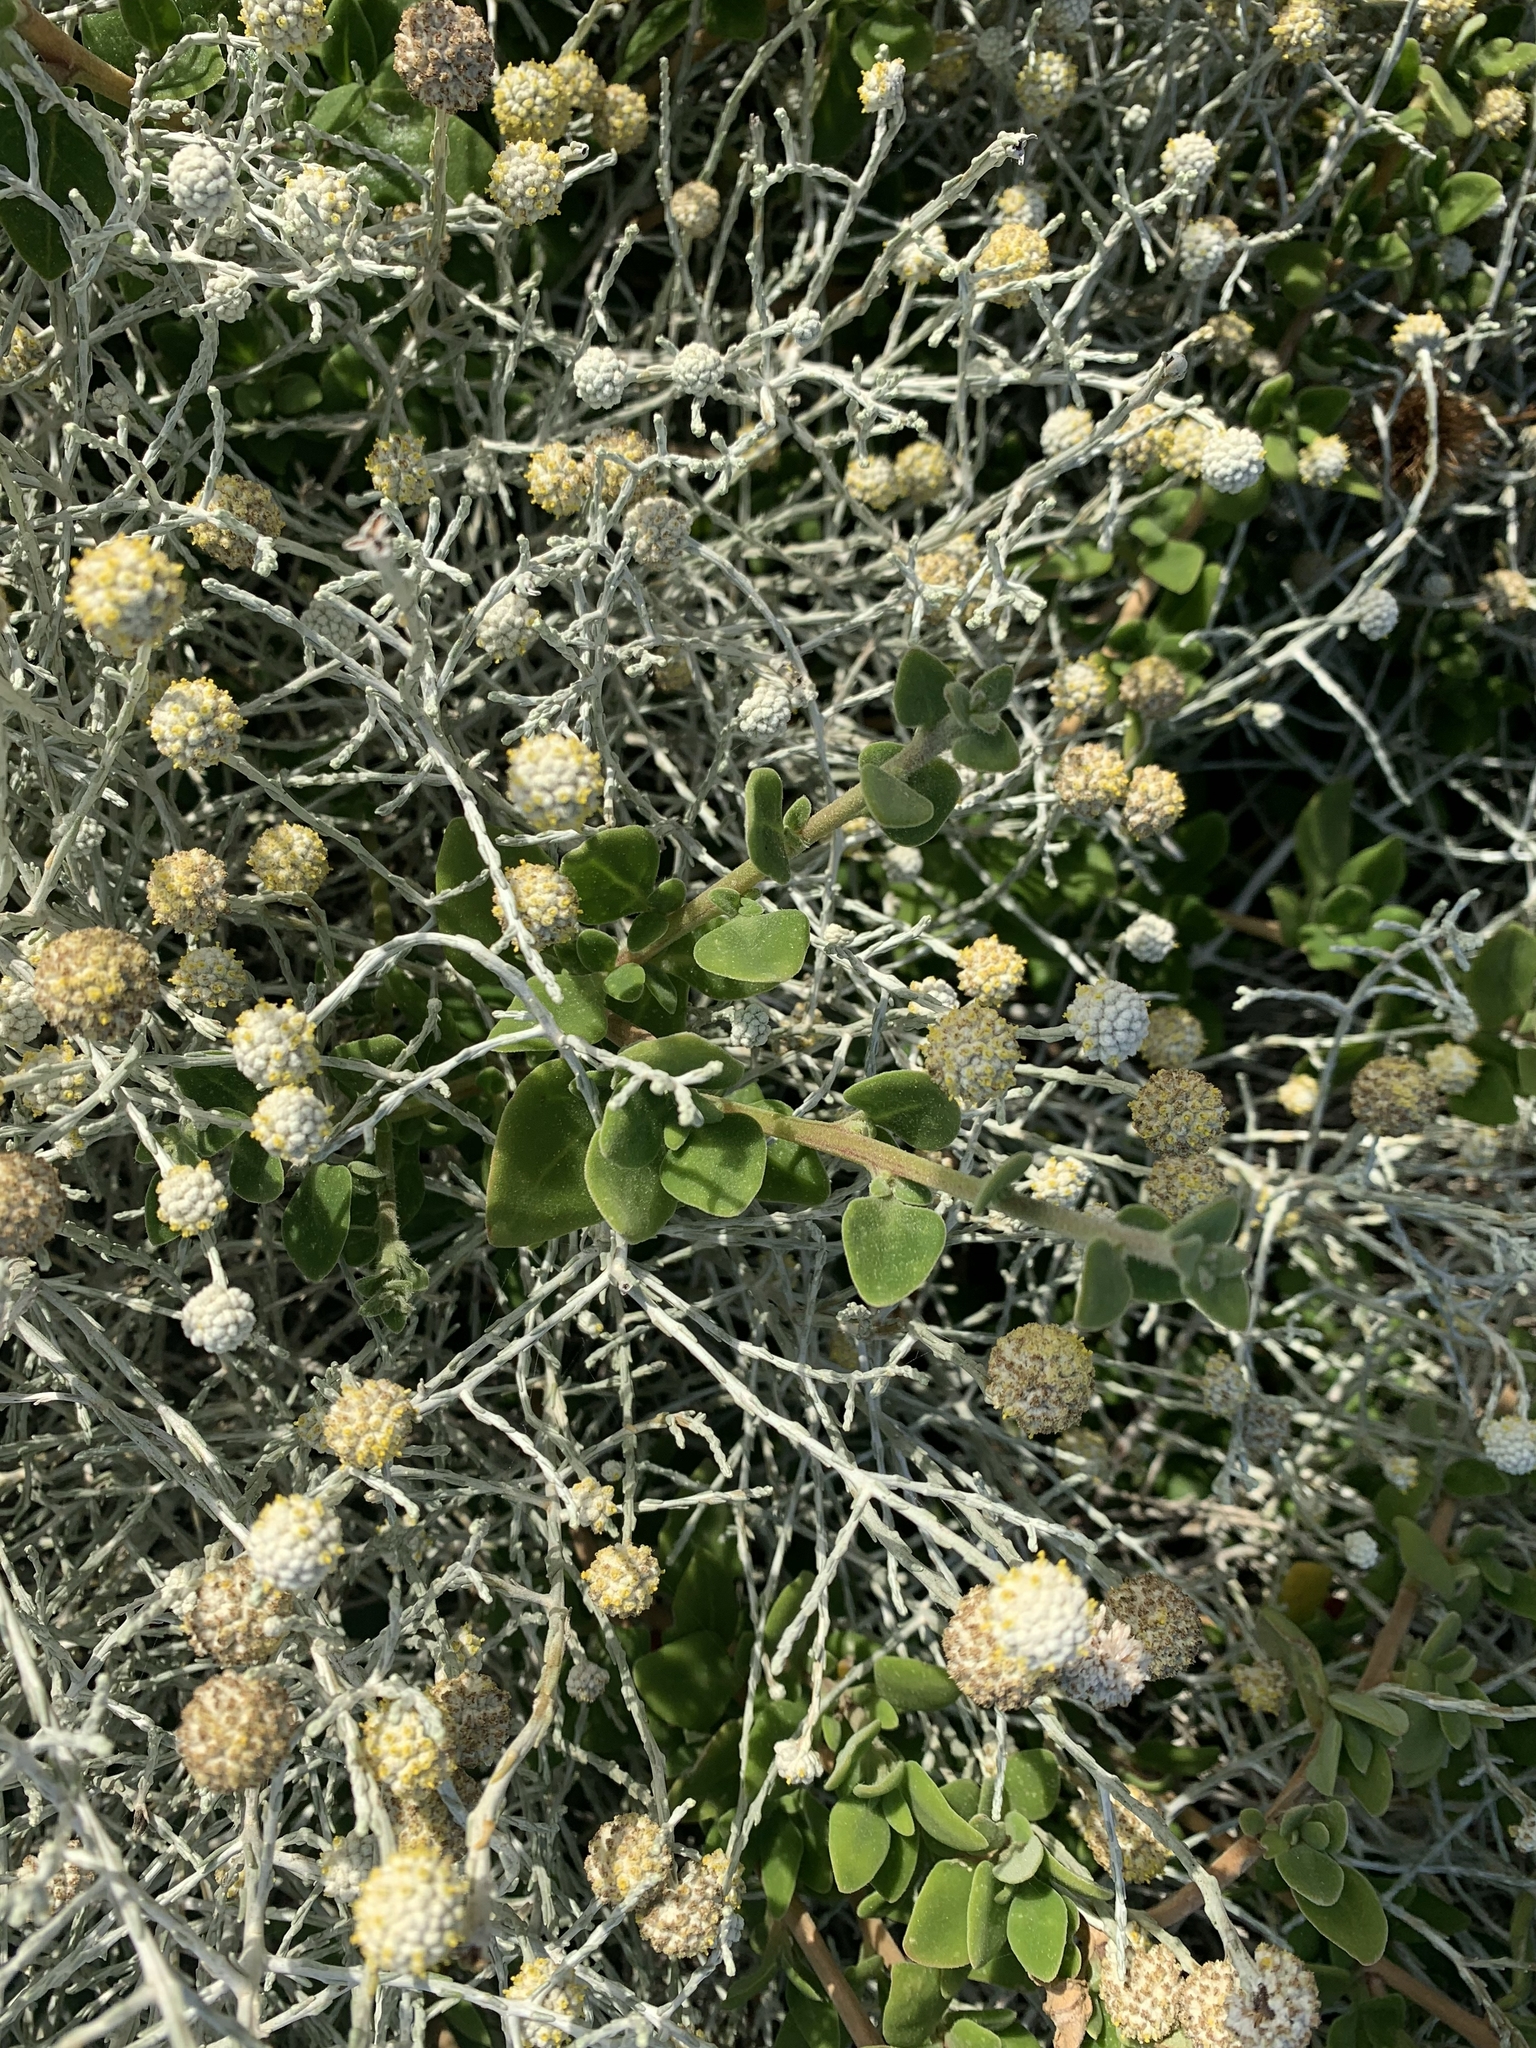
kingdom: Plantae
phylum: Tracheophyta
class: Magnoliopsida
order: Asterales
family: Asteraceae
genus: Calocephalus
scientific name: Calocephalus brownii
